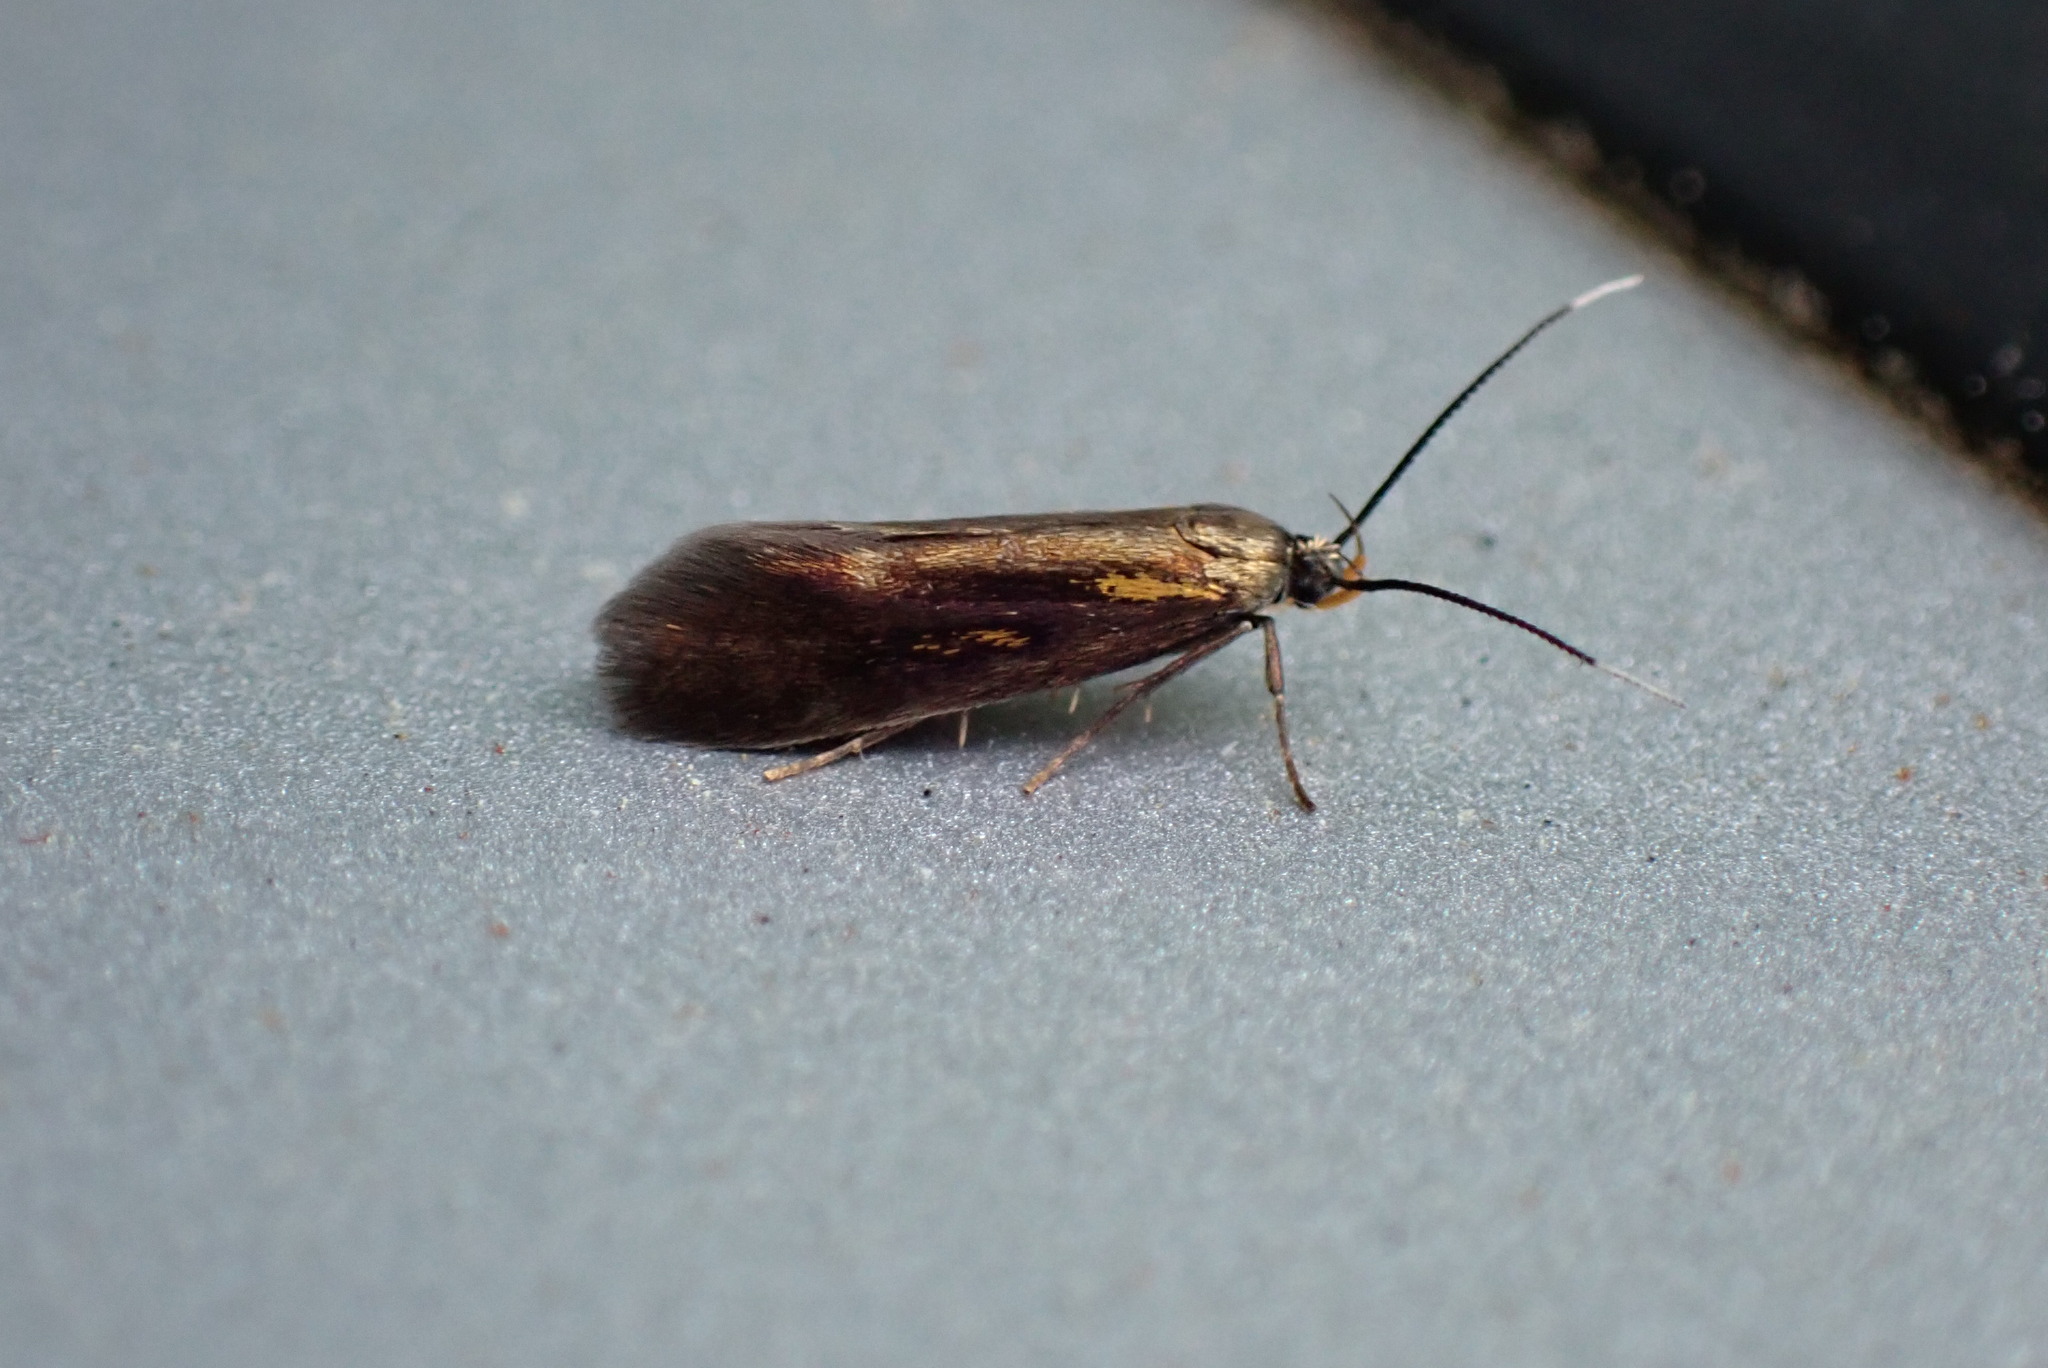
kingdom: Animalia
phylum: Arthropoda
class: Insecta
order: Lepidoptera
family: Oecophoridae
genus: Mathildana
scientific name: Mathildana newmanella
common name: Newman's mathildana moth
